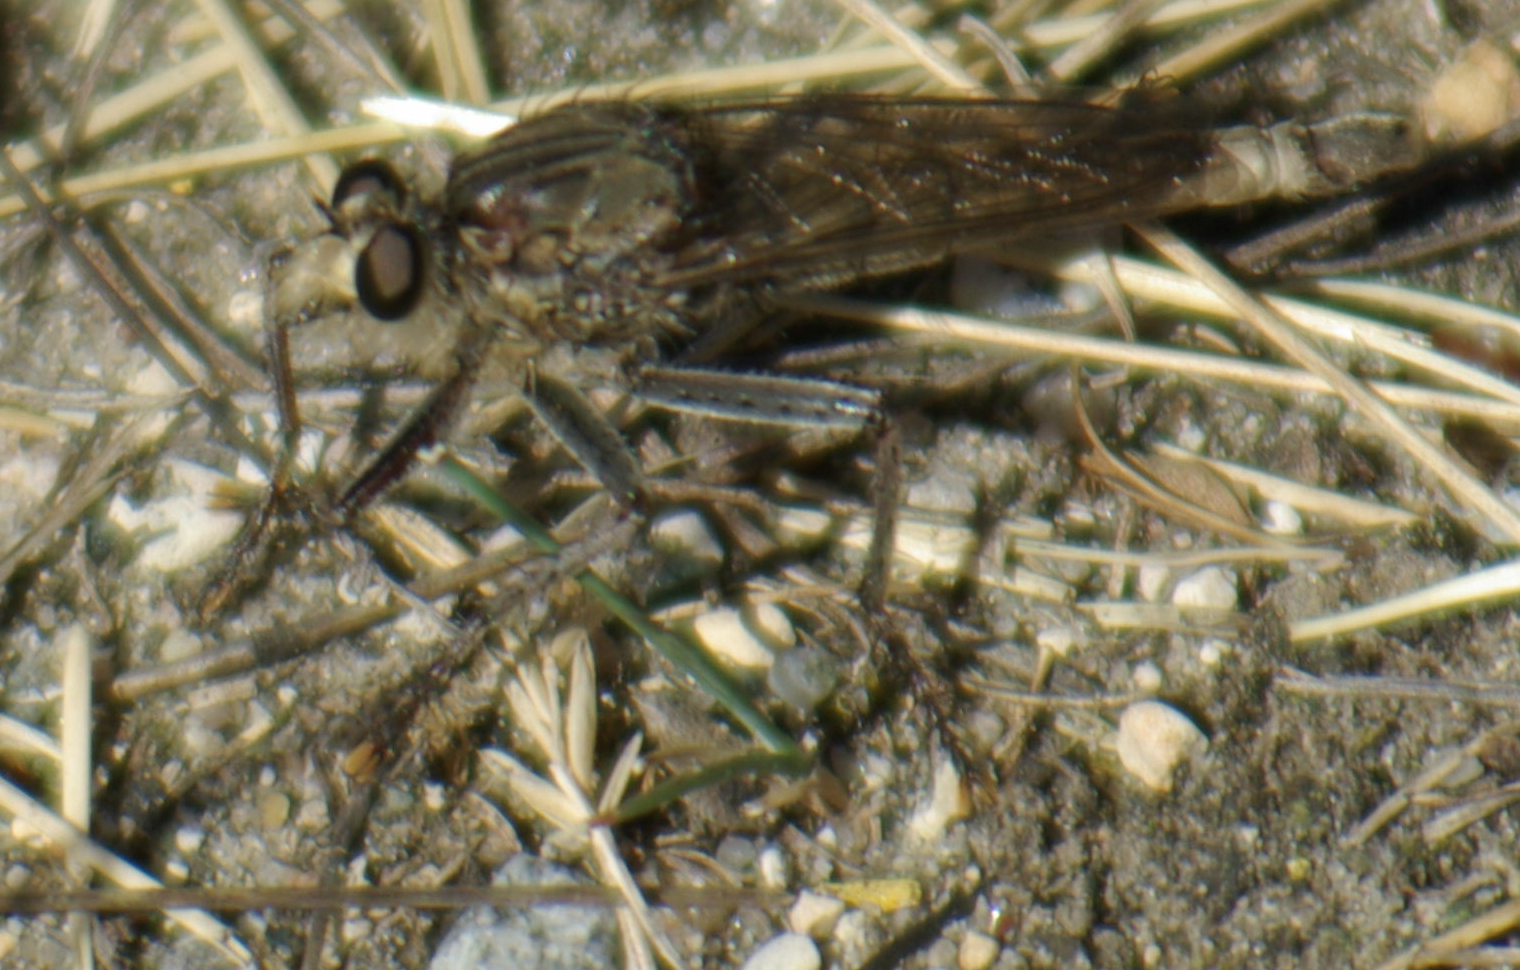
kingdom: Animalia
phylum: Arthropoda
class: Insecta
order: Diptera
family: Asilidae
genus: Proctacanthus
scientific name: Proctacanthus milbertii
